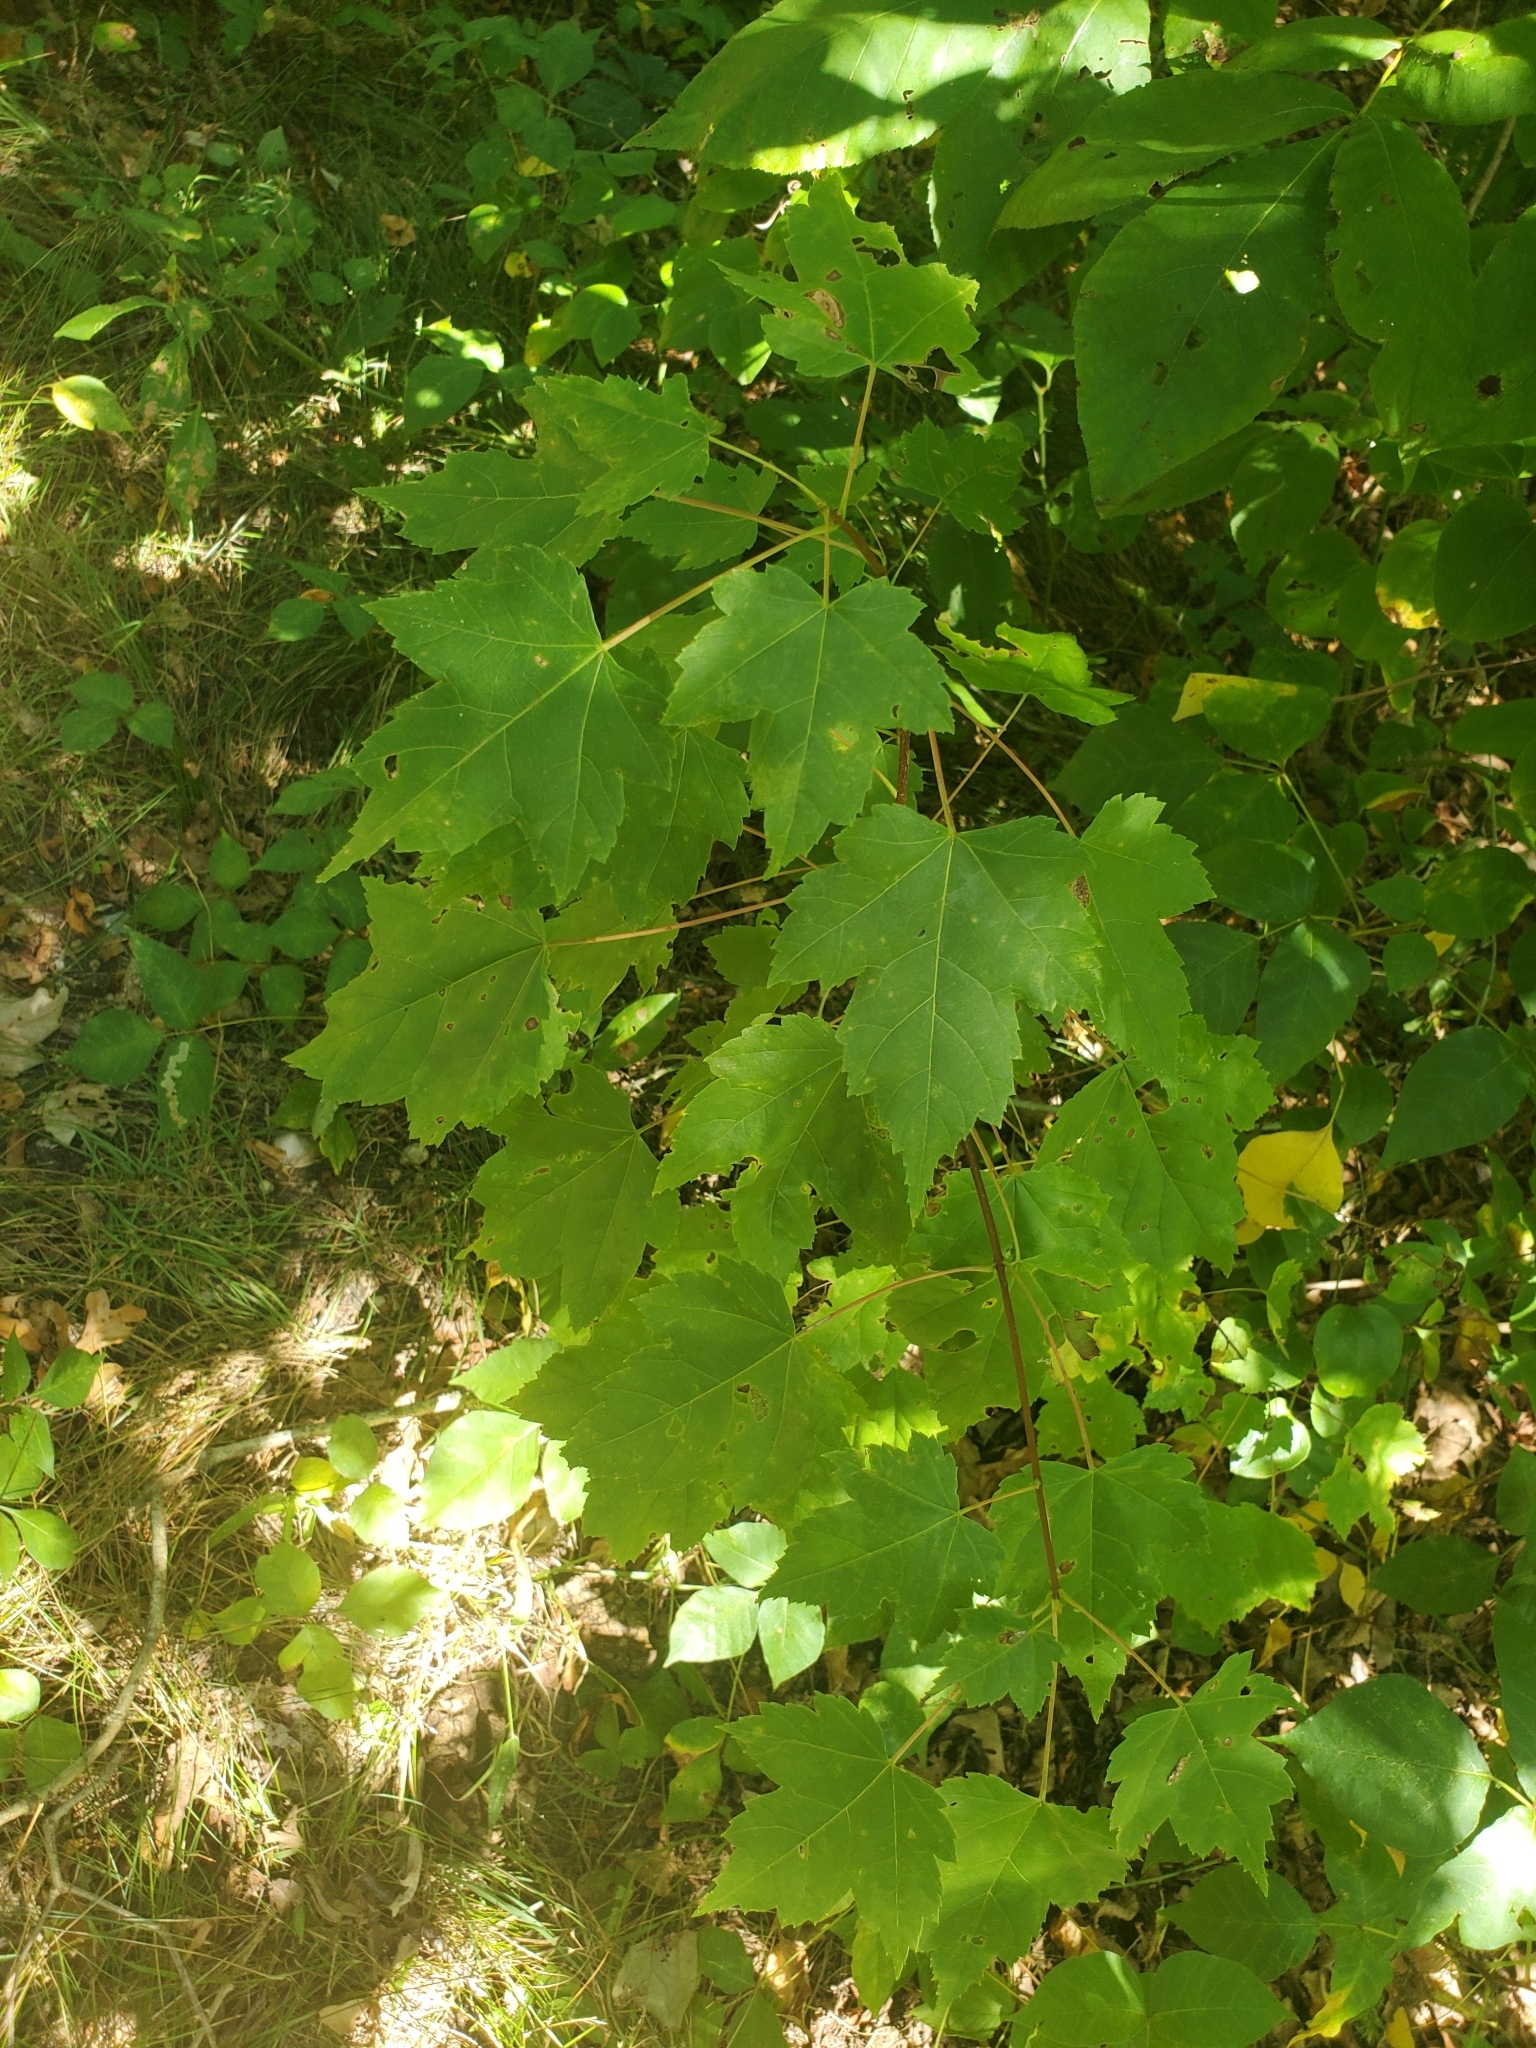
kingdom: Plantae
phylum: Tracheophyta
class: Magnoliopsida
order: Sapindales
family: Sapindaceae
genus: Acer
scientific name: Acer rubrum
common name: Red maple
